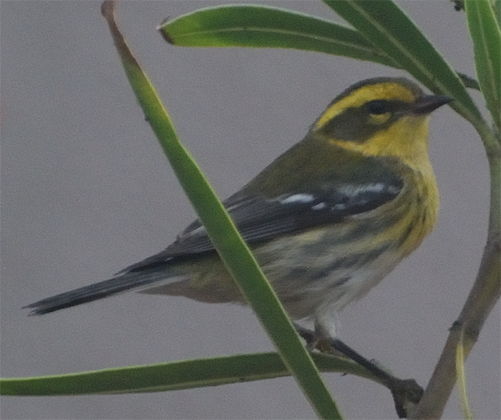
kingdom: Animalia
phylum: Chordata
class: Aves
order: Passeriformes
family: Parulidae
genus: Setophaga
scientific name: Setophaga townsendi
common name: Townsend's warbler
